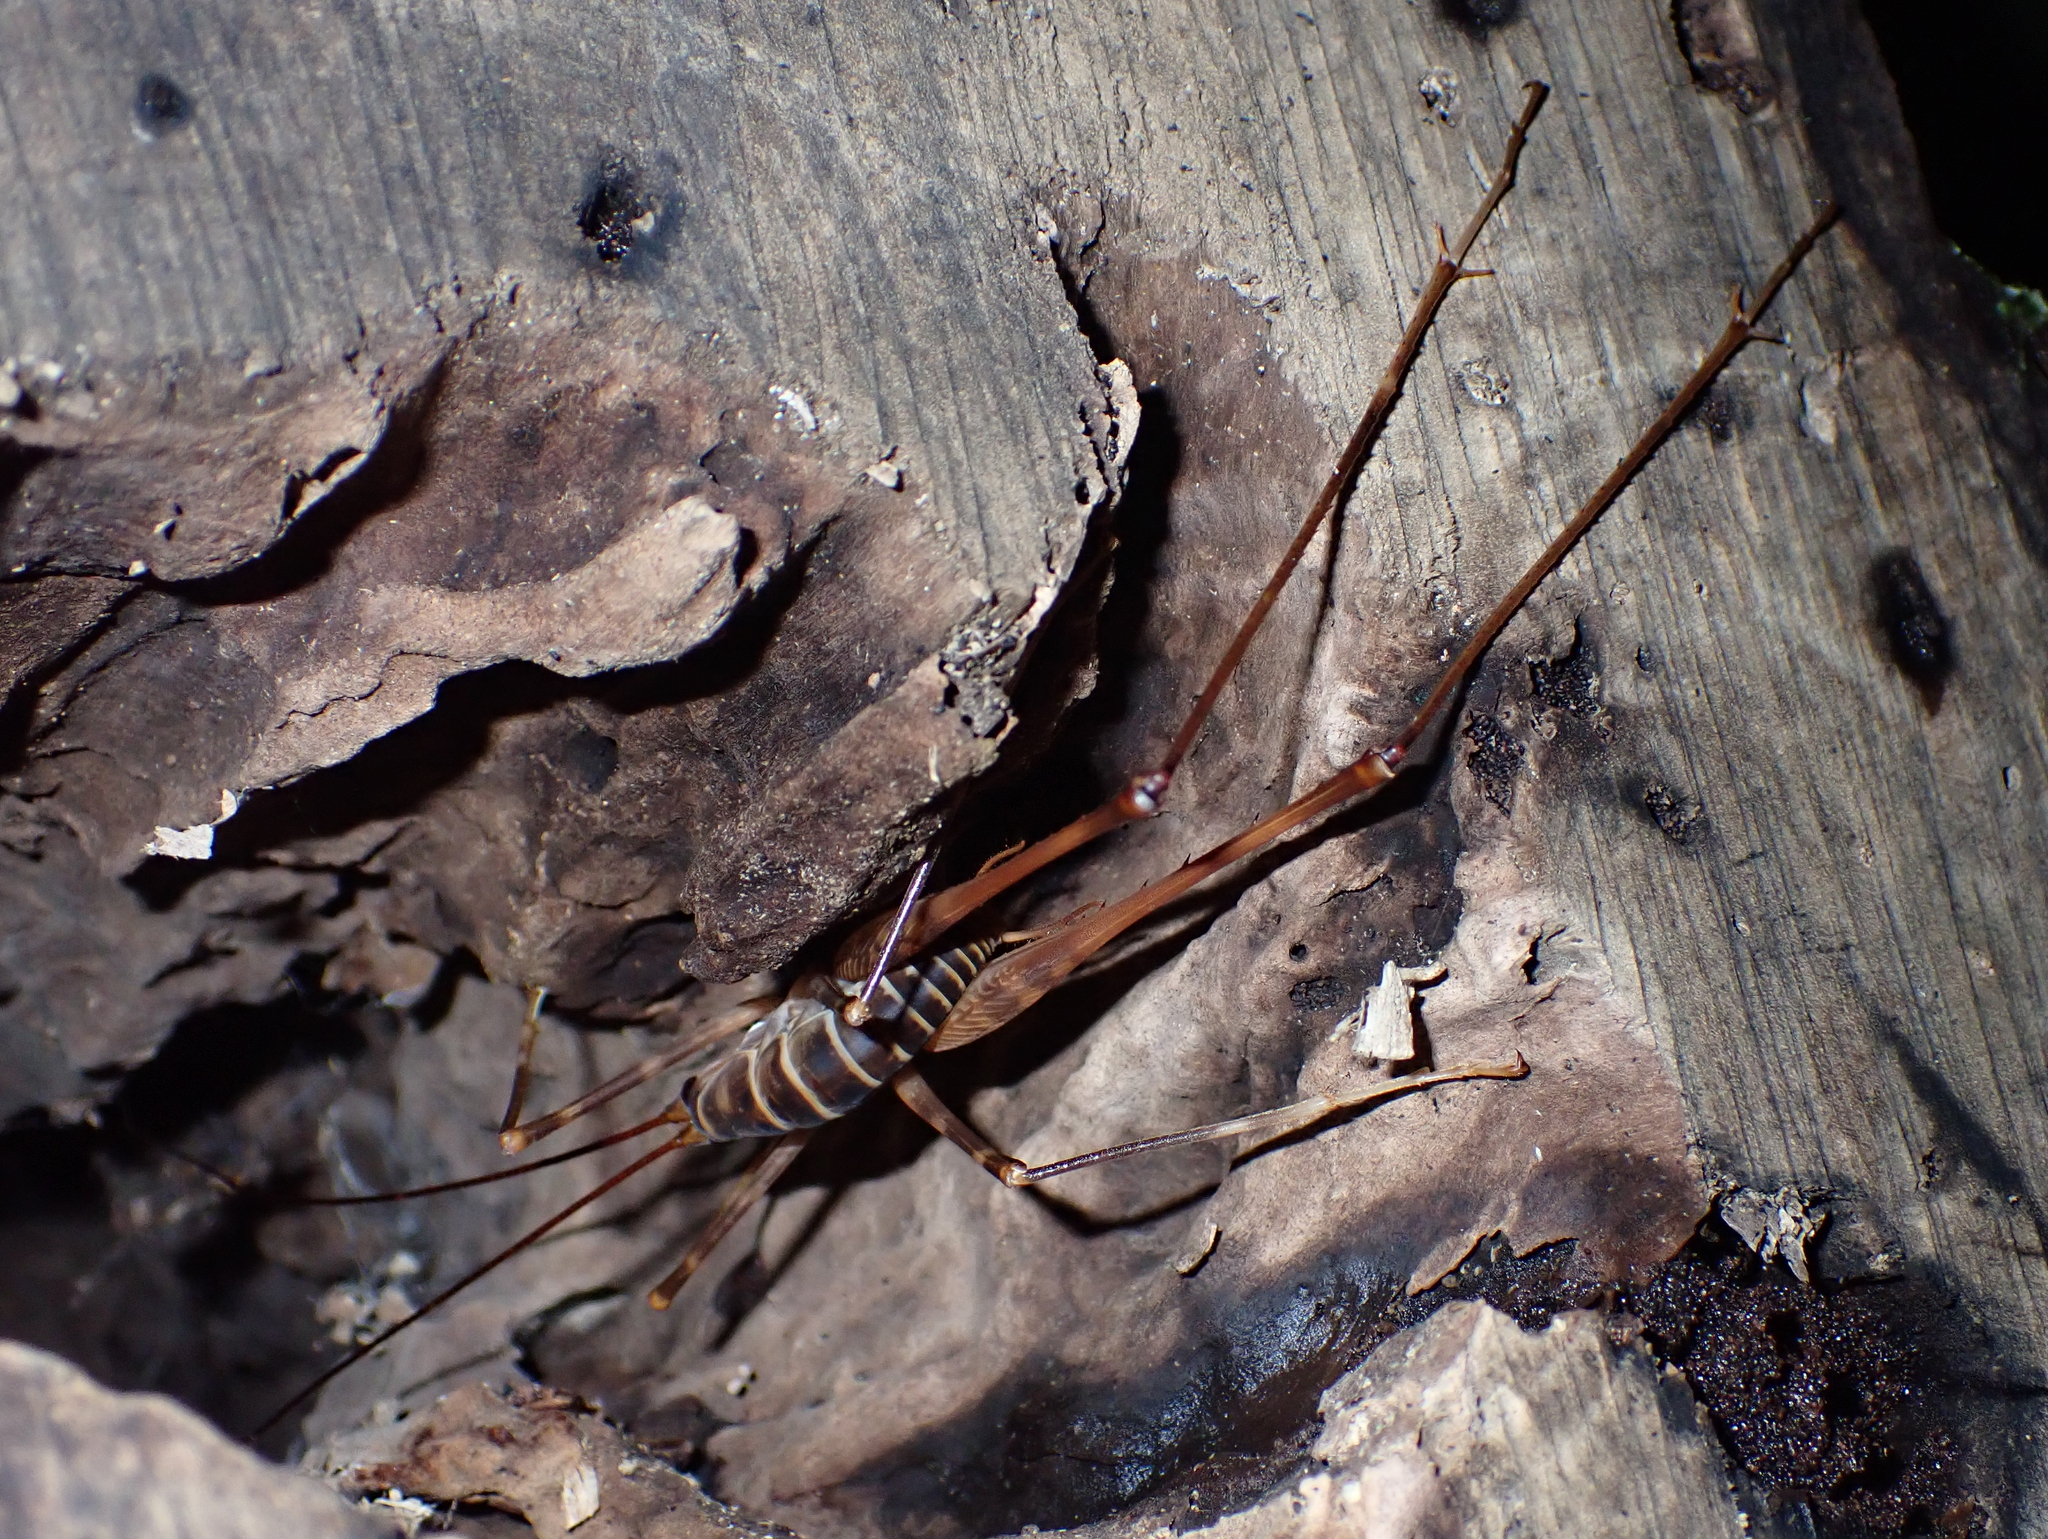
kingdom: Animalia
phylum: Arthropoda
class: Insecta
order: Orthoptera
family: Rhaphidophoridae
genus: Pachyrhamma
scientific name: Pachyrhamma acanthocera
